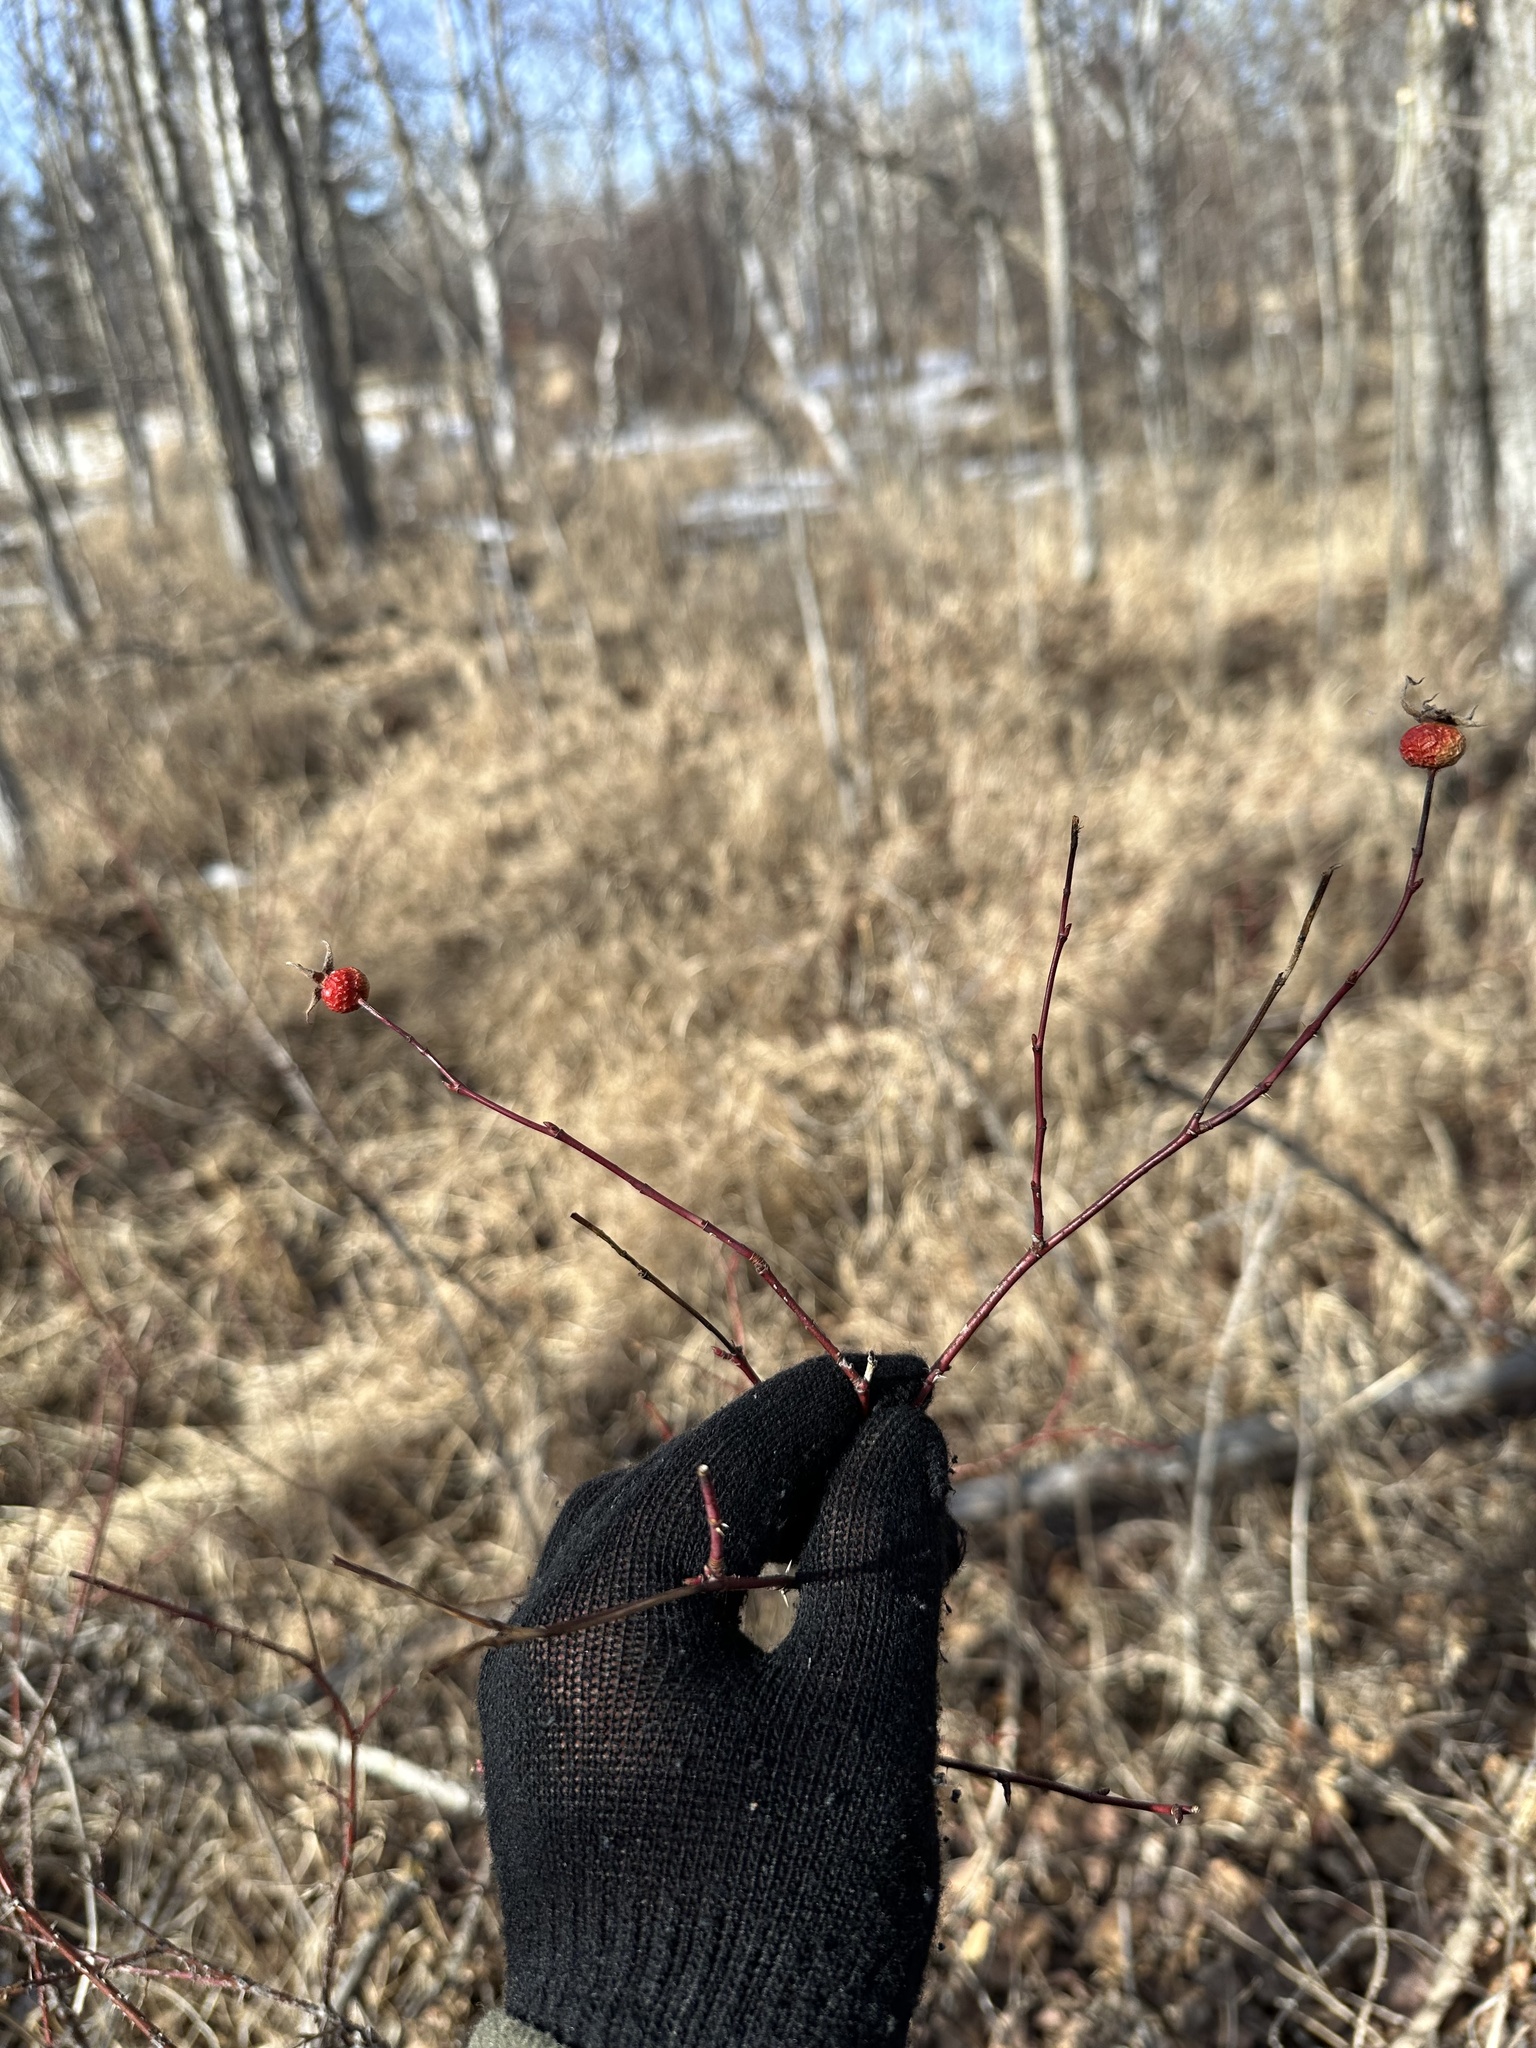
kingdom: Plantae
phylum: Tracheophyta
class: Magnoliopsida
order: Rosales
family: Rosaceae
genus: Rosa
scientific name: Rosa woodsii
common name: Woods's rose
